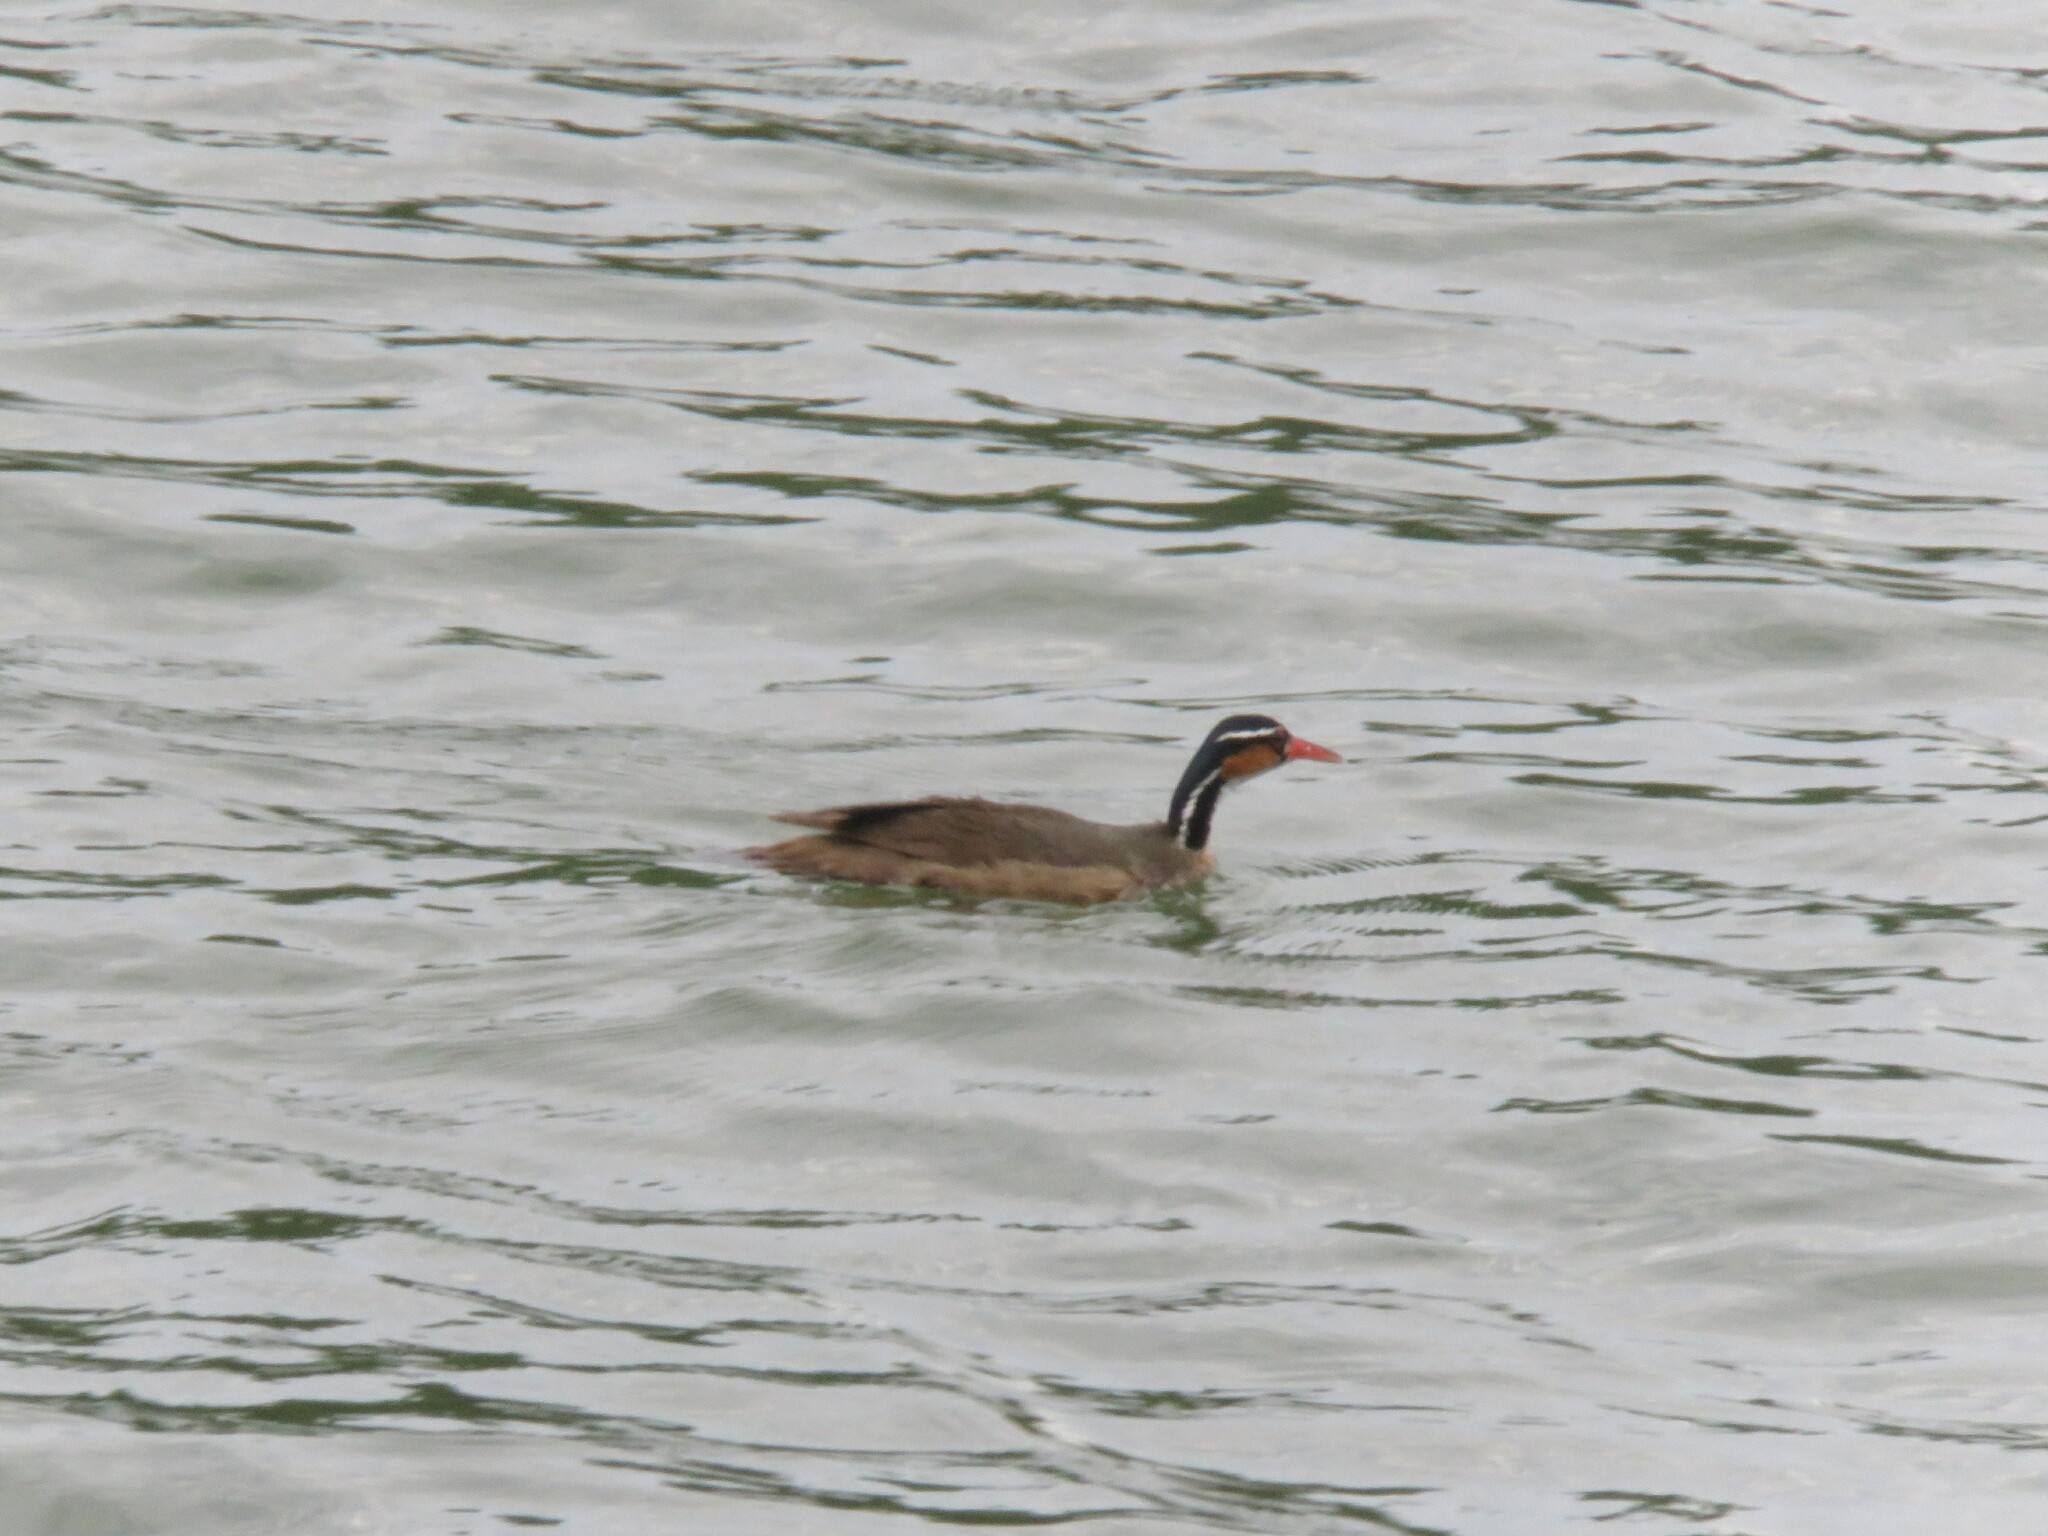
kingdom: Animalia
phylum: Chordata
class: Aves
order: Gruiformes
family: Heliornithidae
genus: Heliornis
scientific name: Heliornis fulica
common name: Sungrebe
